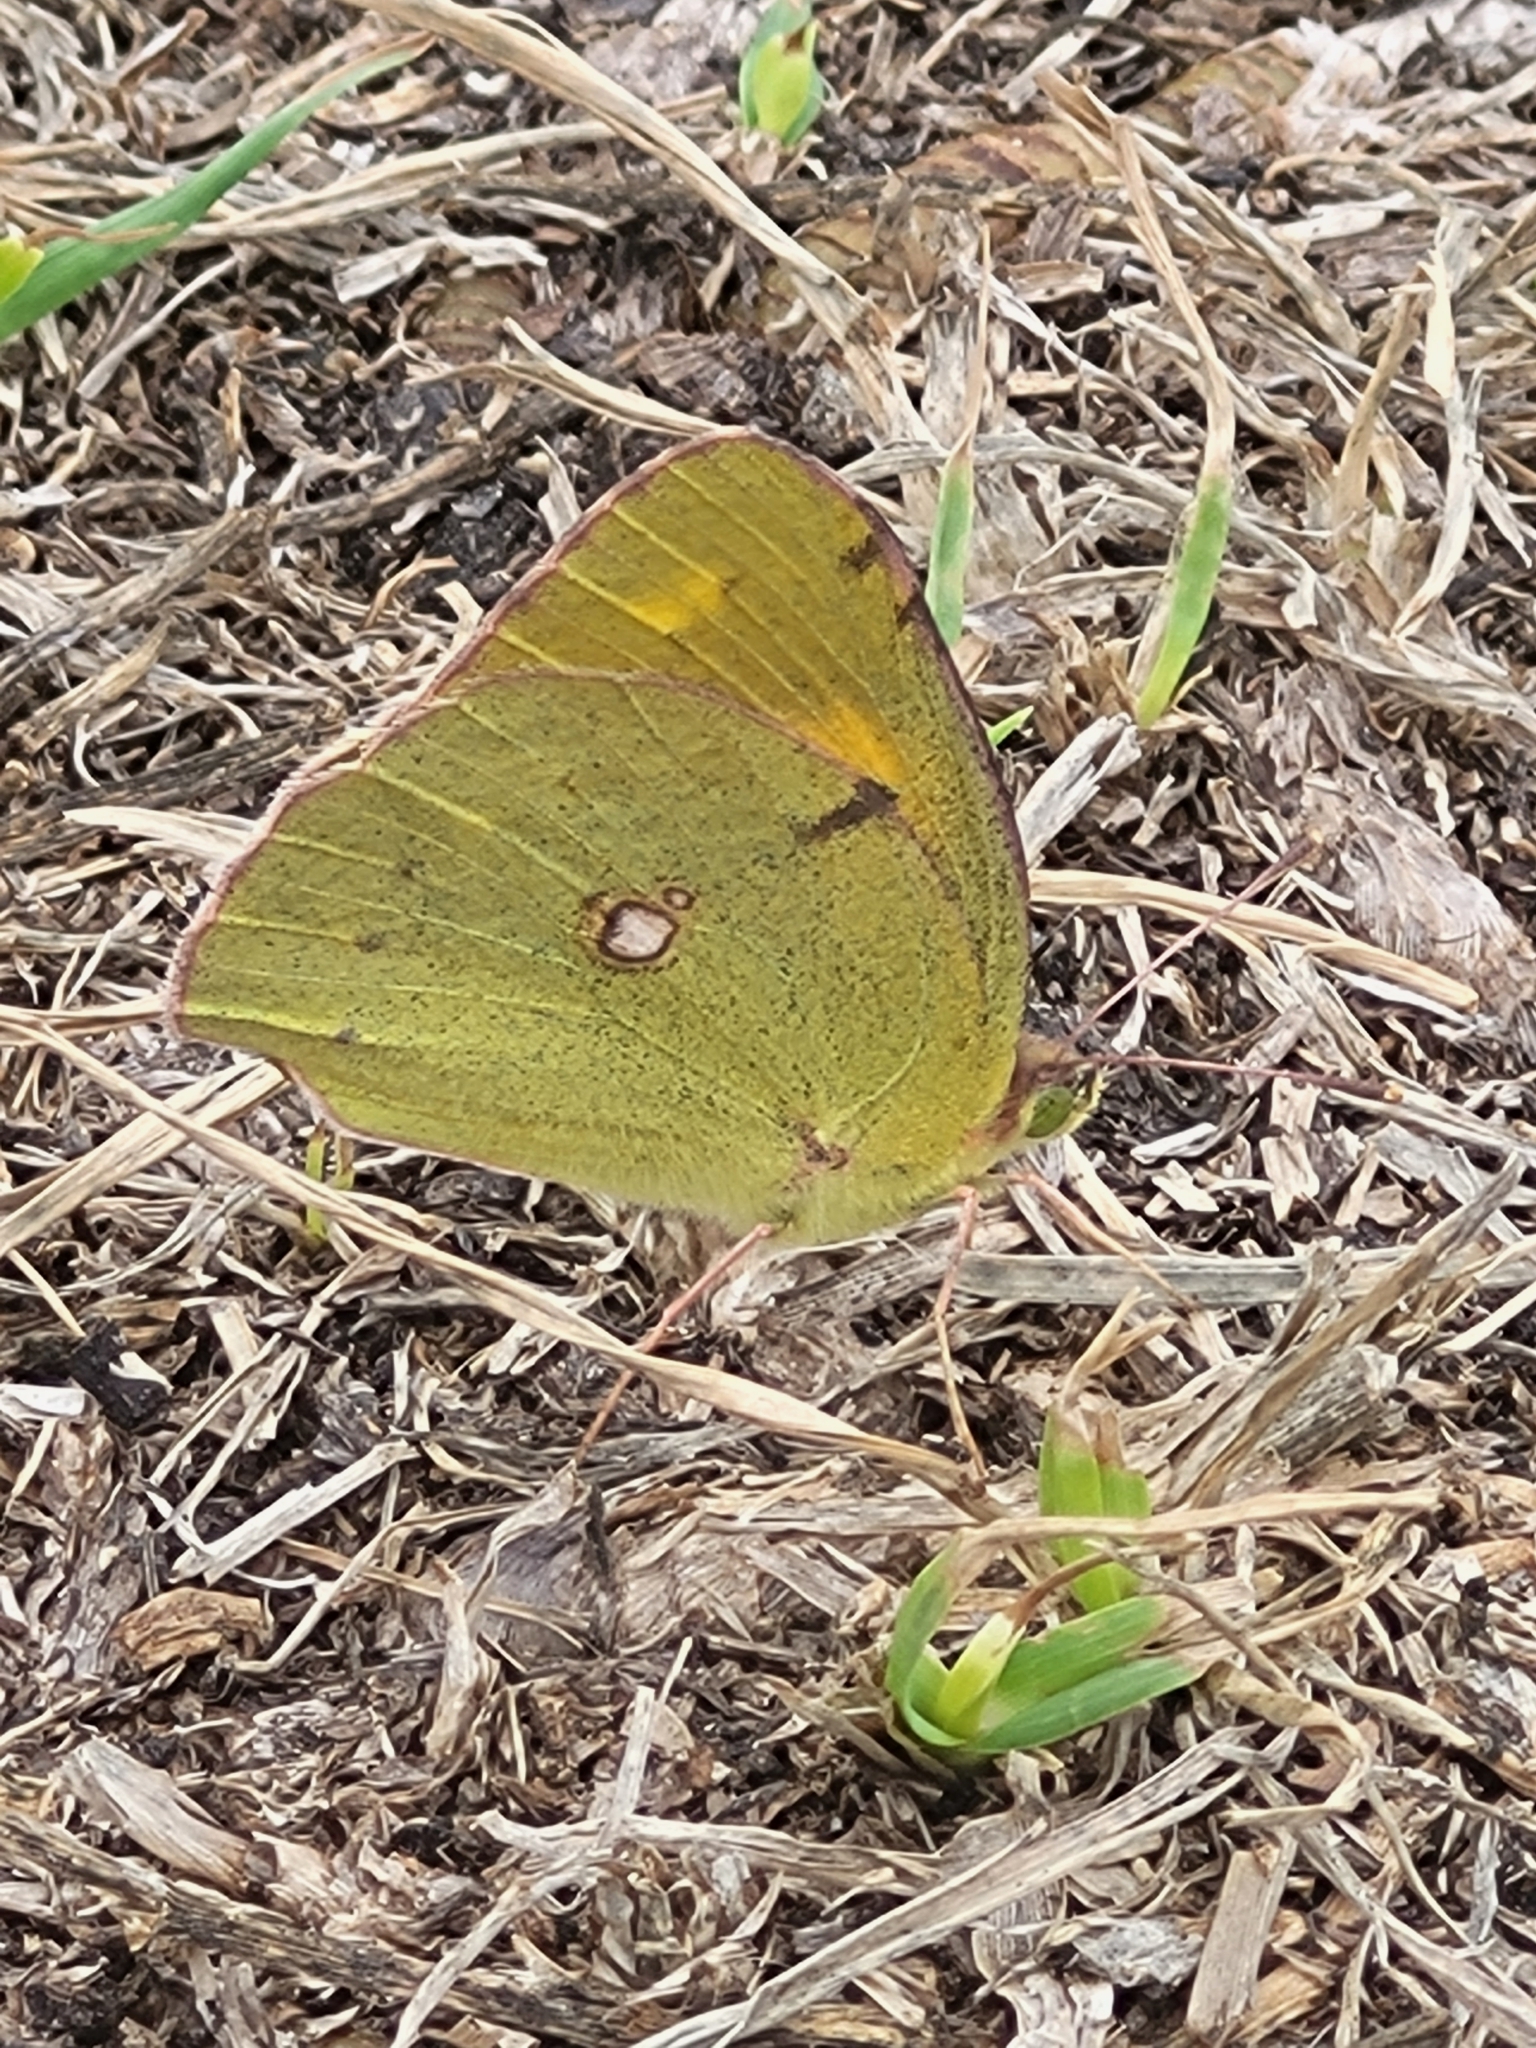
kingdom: Animalia
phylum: Arthropoda
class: Insecta
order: Lepidoptera
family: Pieridae
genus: Colias
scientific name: Colias croceus
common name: Clouded yellow
